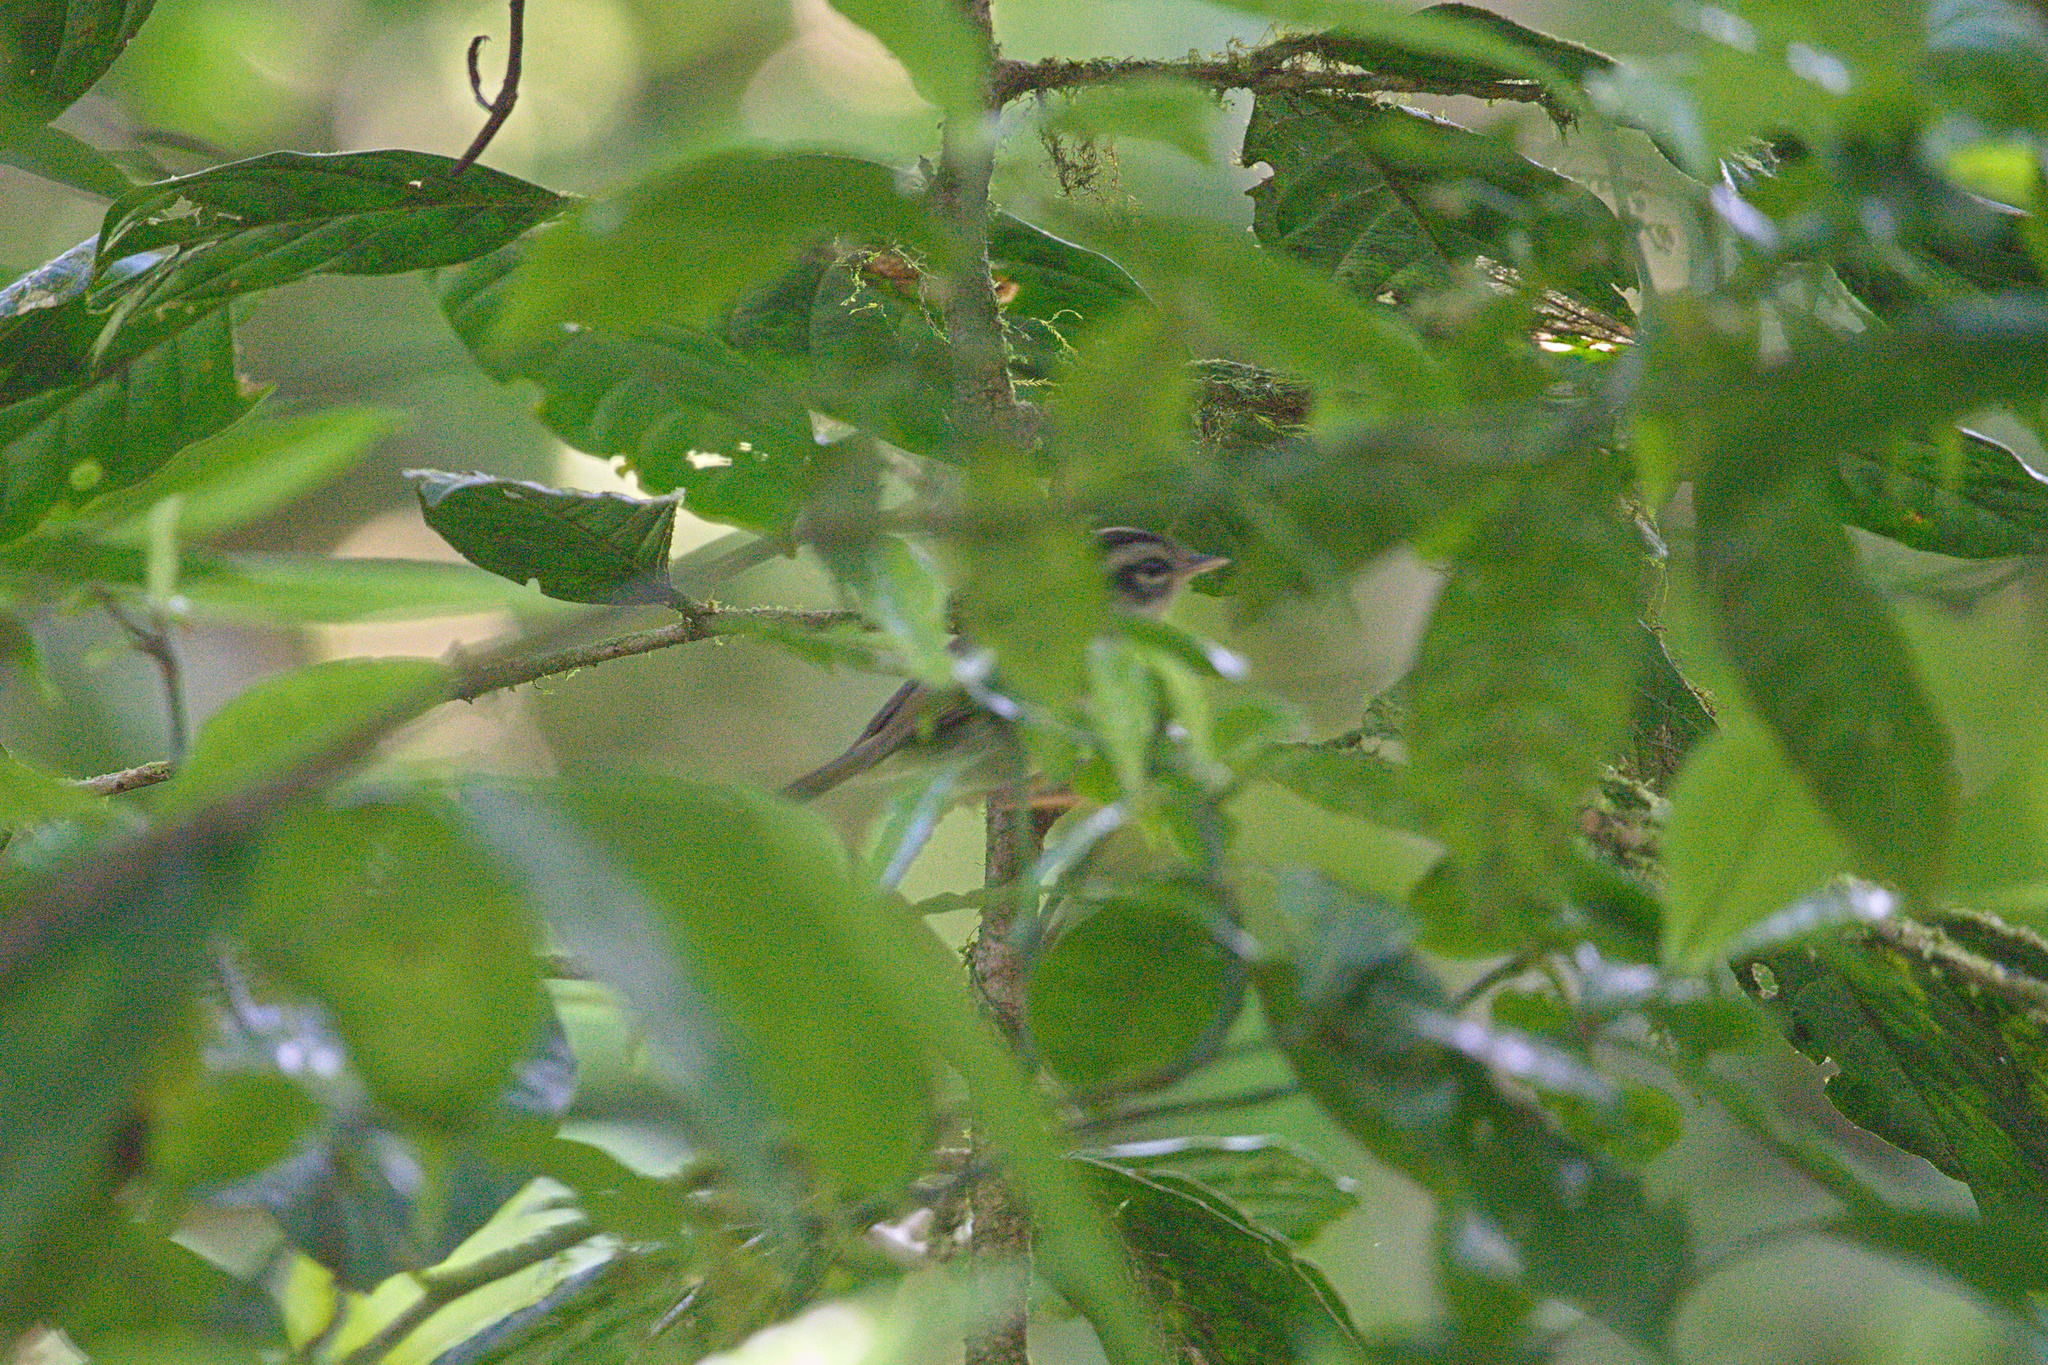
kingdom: Animalia
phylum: Chordata
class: Aves
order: Passeriformes
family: Parulidae
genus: Basileuterus
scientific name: Basileuterus melanotis
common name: Black-eared warbler
